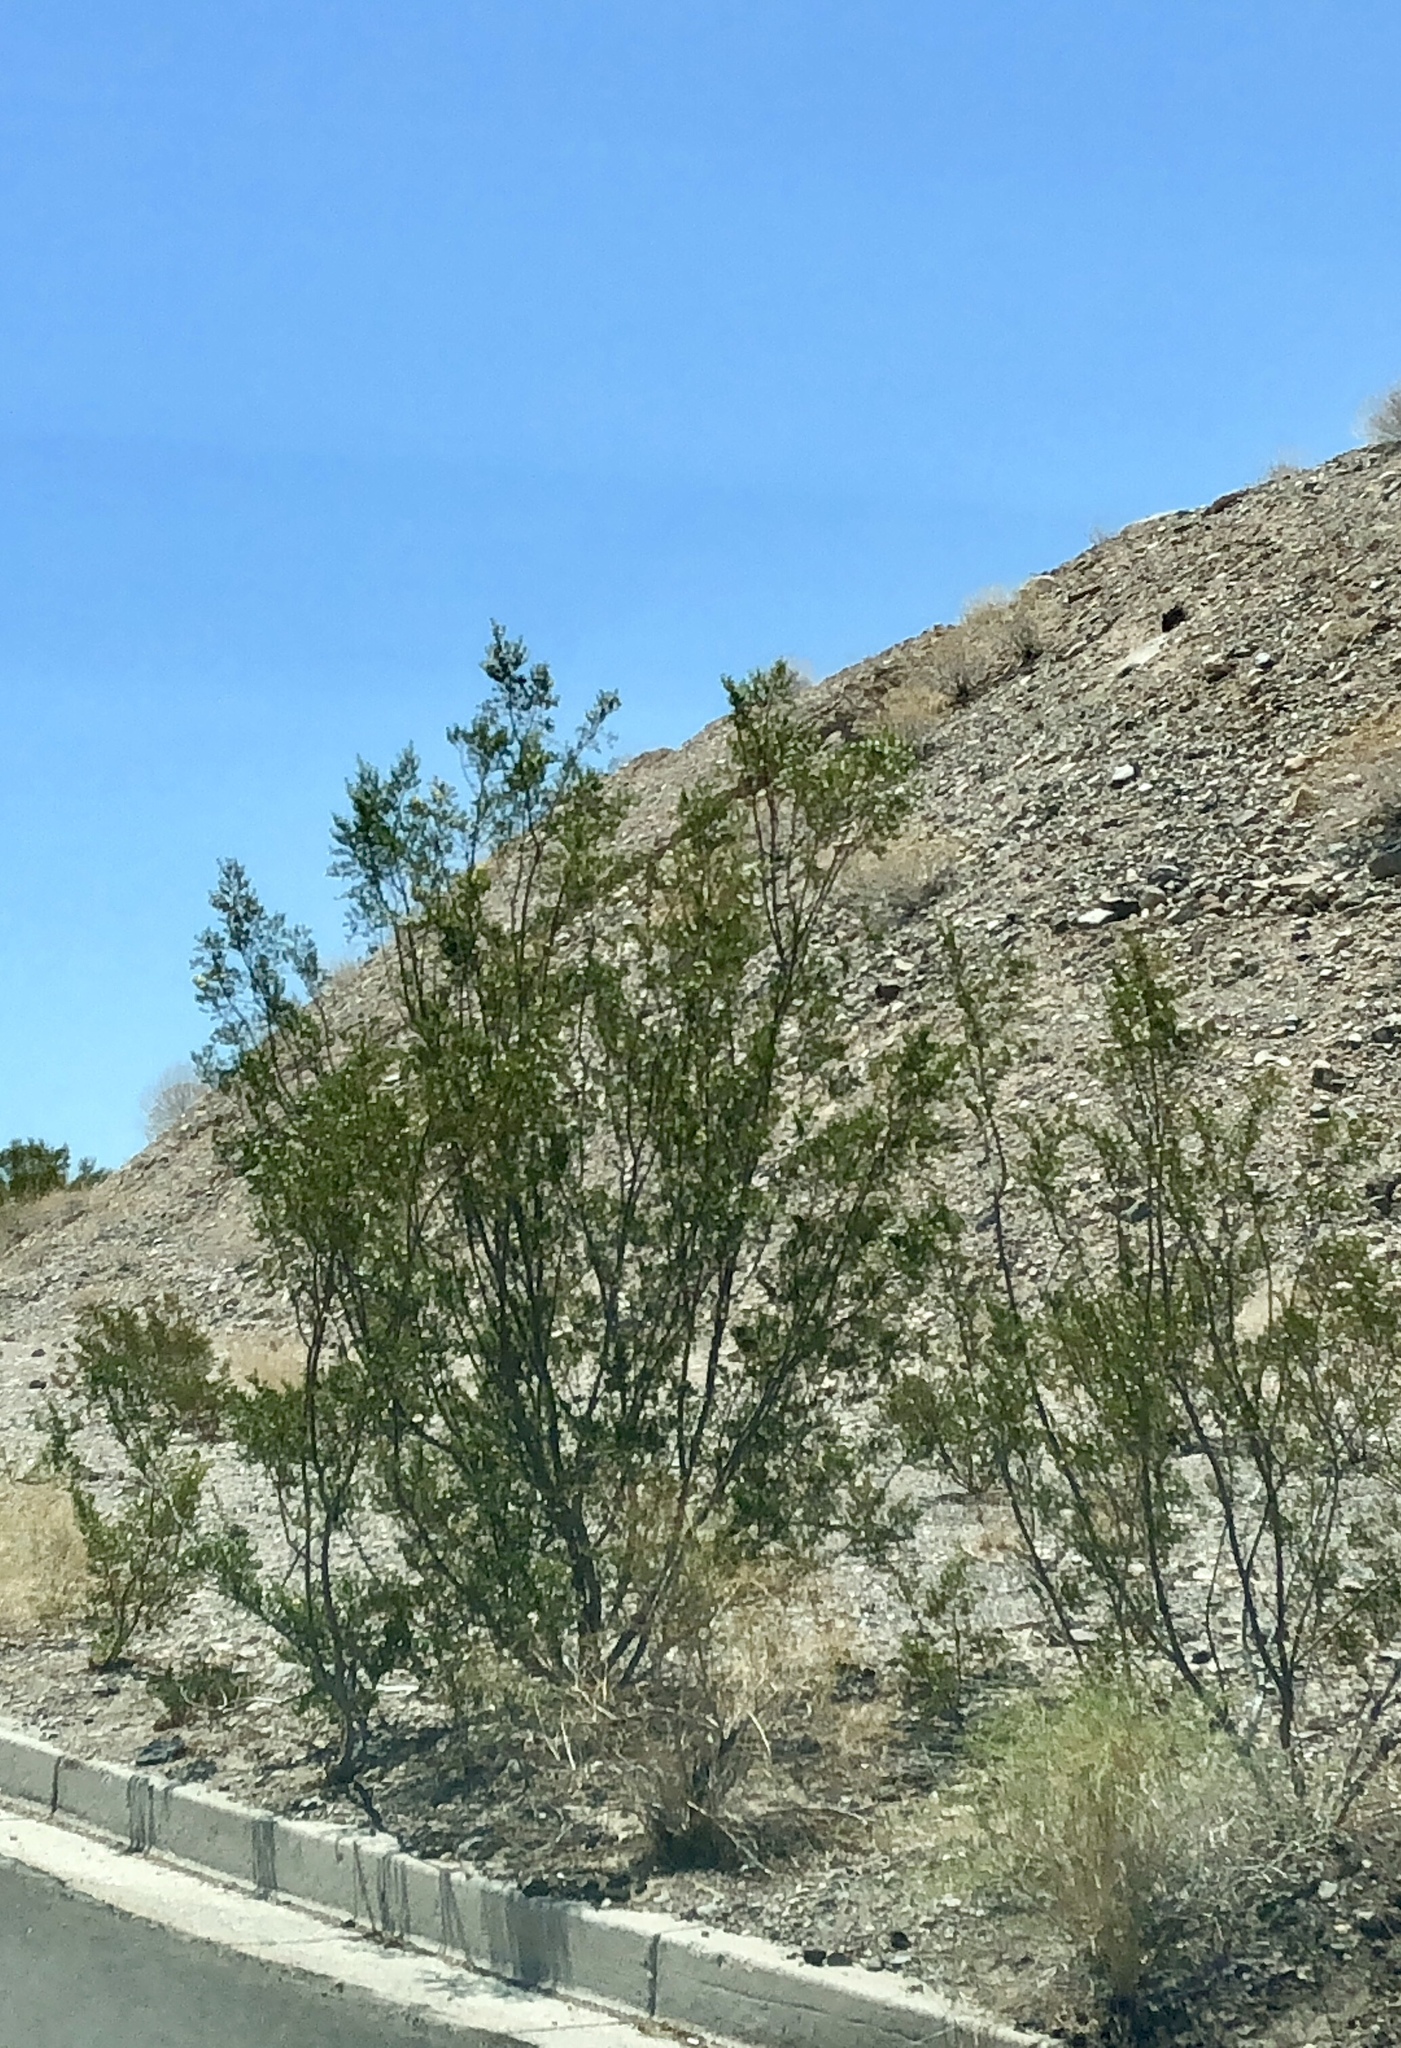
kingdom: Plantae
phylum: Tracheophyta
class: Magnoliopsida
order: Zygophyllales
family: Zygophyllaceae
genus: Larrea
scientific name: Larrea tridentata
